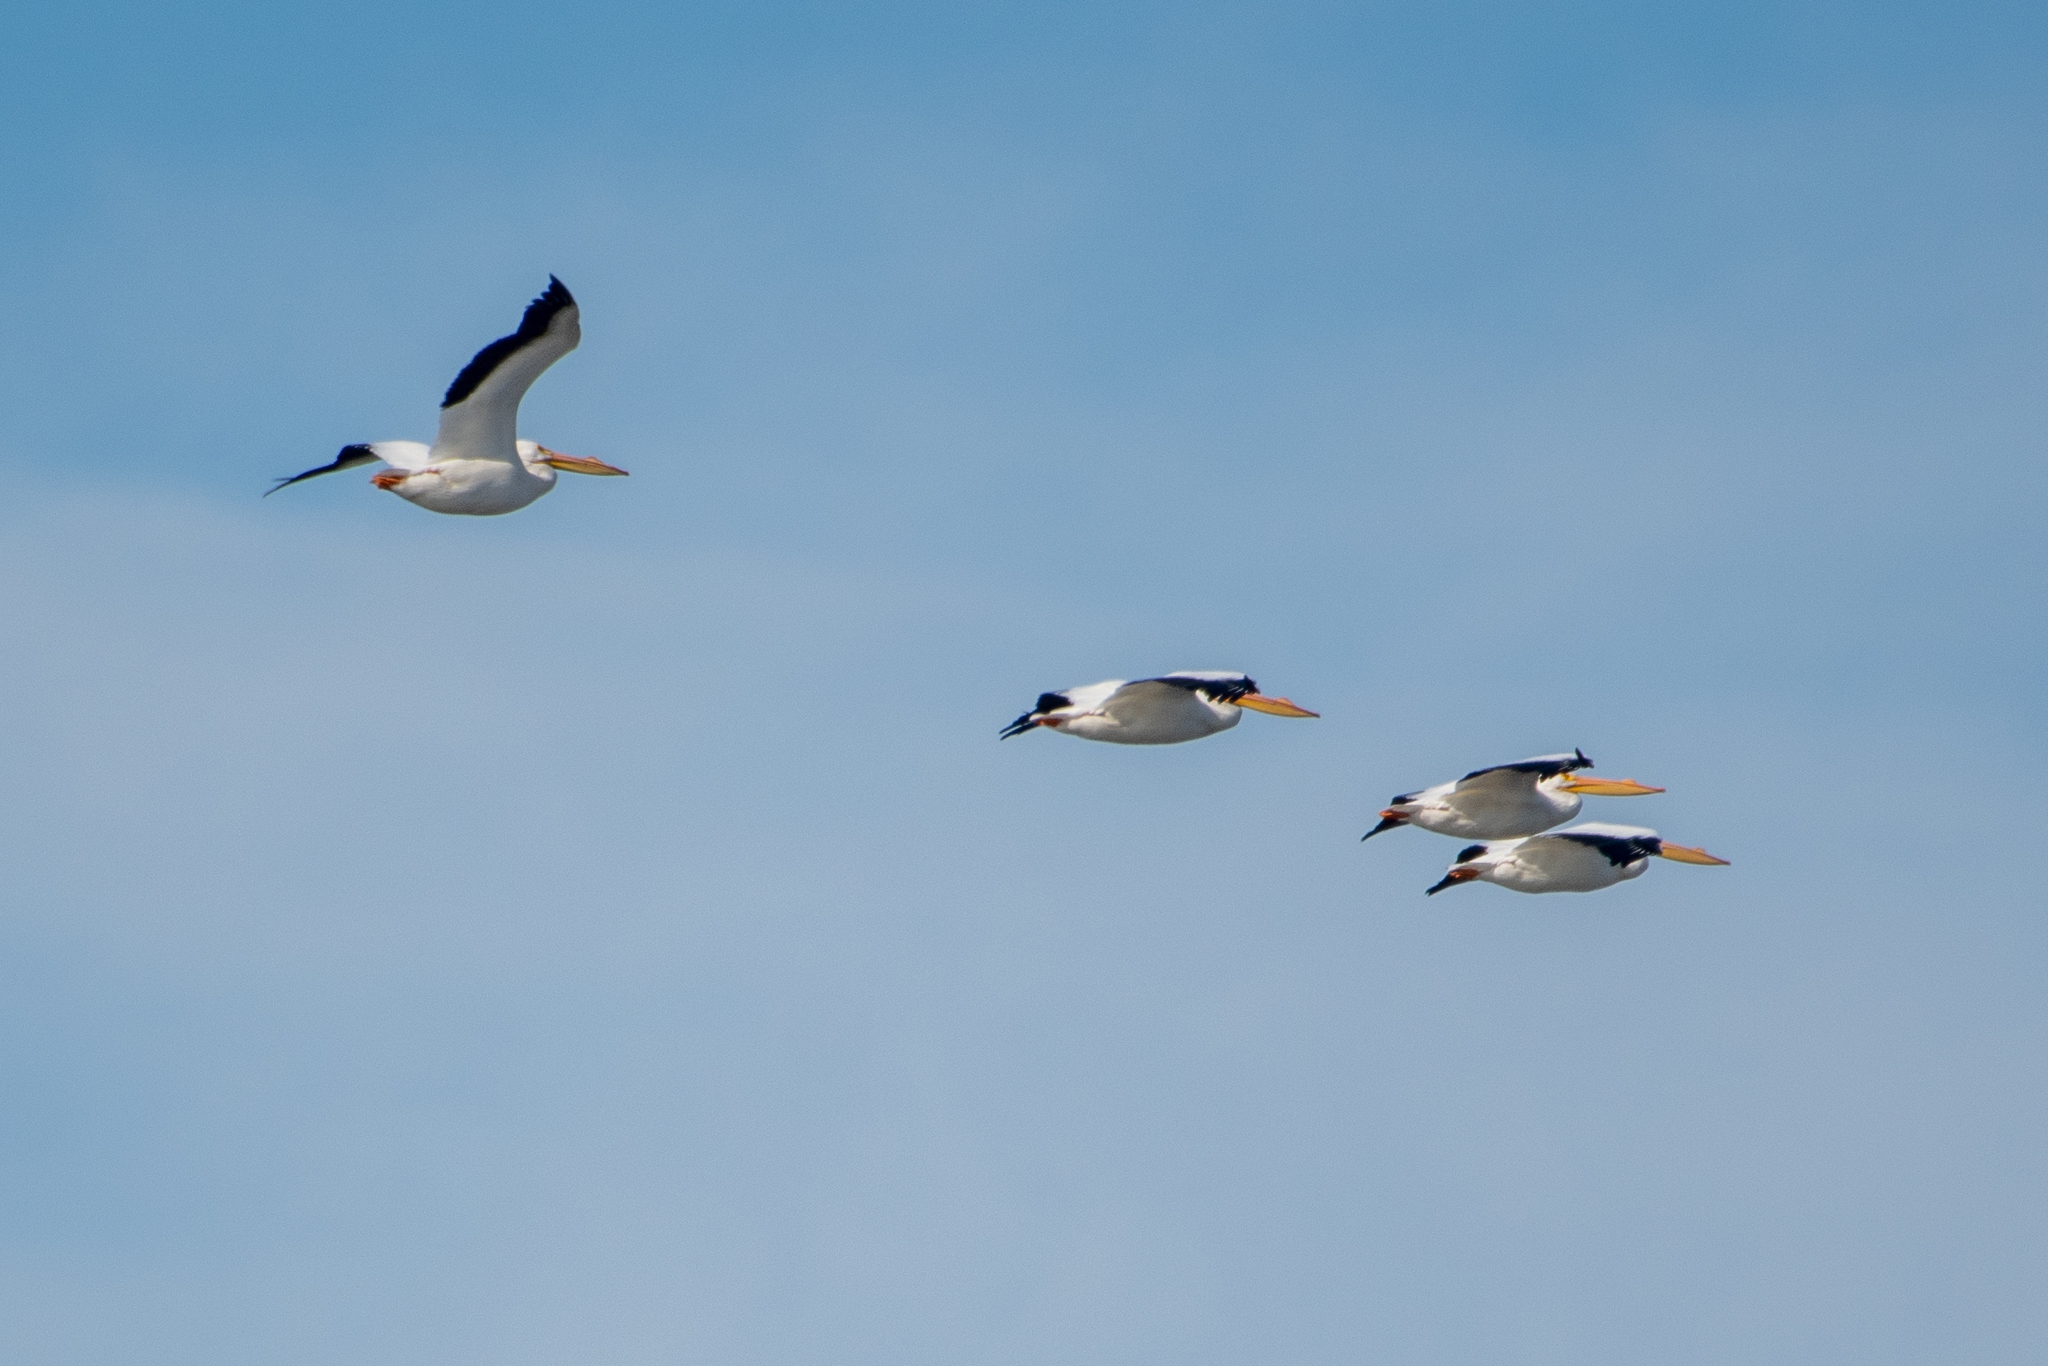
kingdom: Animalia
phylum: Chordata
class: Aves
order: Pelecaniformes
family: Pelecanidae
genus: Pelecanus
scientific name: Pelecanus erythrorhynchos
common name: American white pelican
